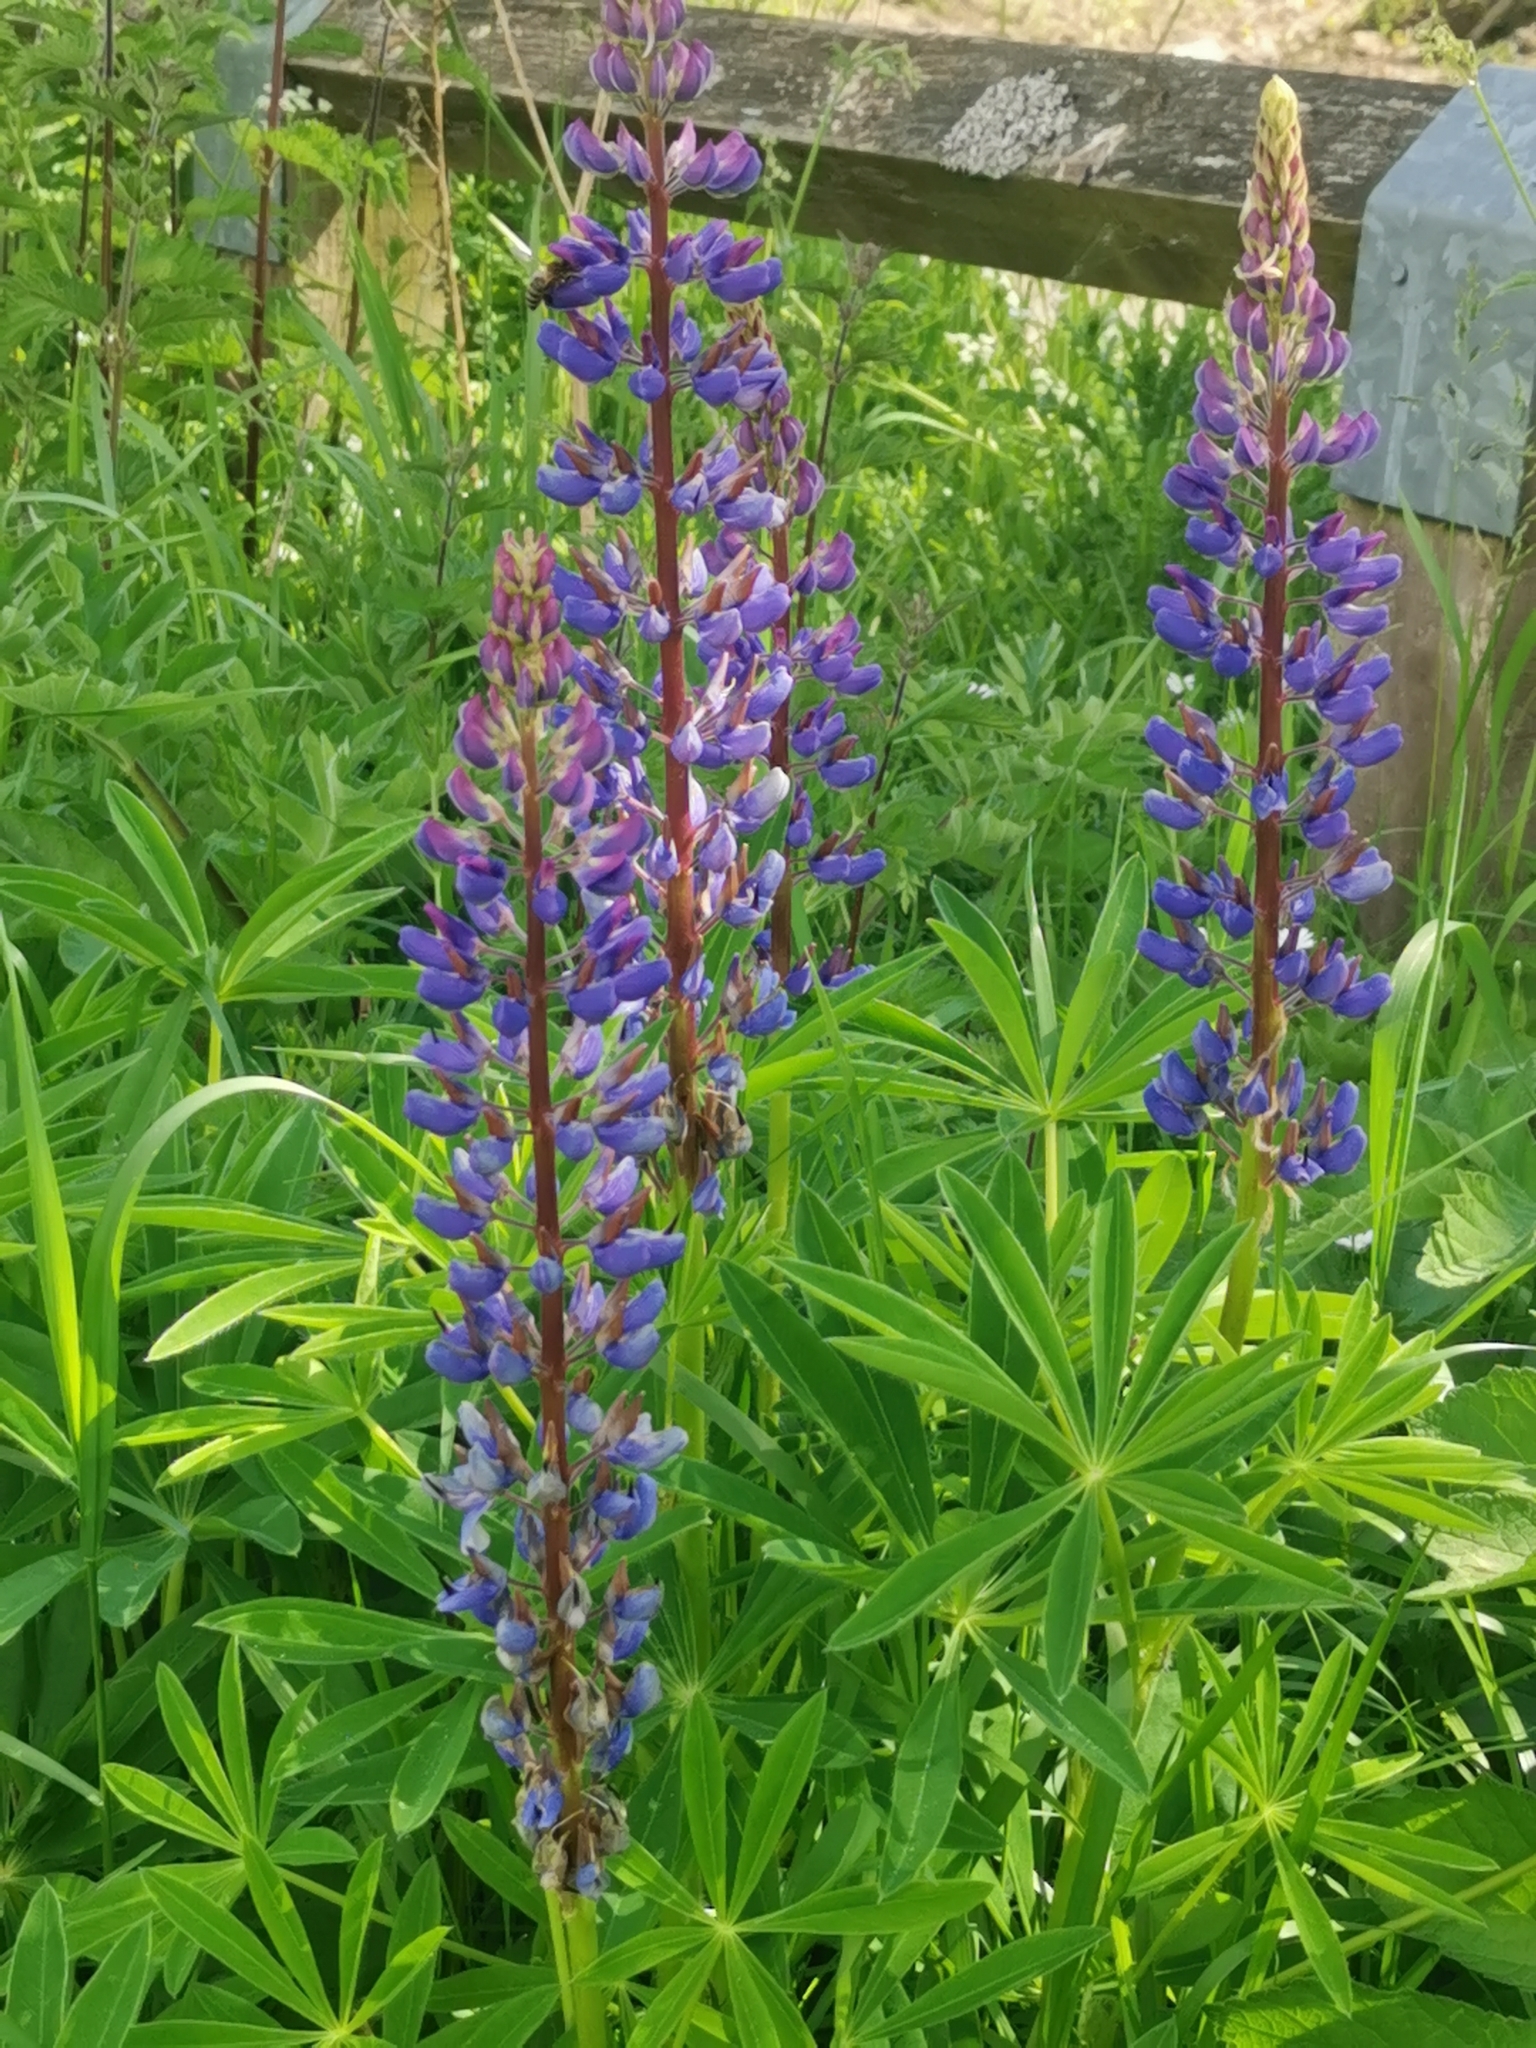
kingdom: Plantae
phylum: Tracheophyta
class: Magnoliopsida
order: Fabales
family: Fabaceae
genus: Lupinus
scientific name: Lupinus polyphyllus
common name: Garden lupin
